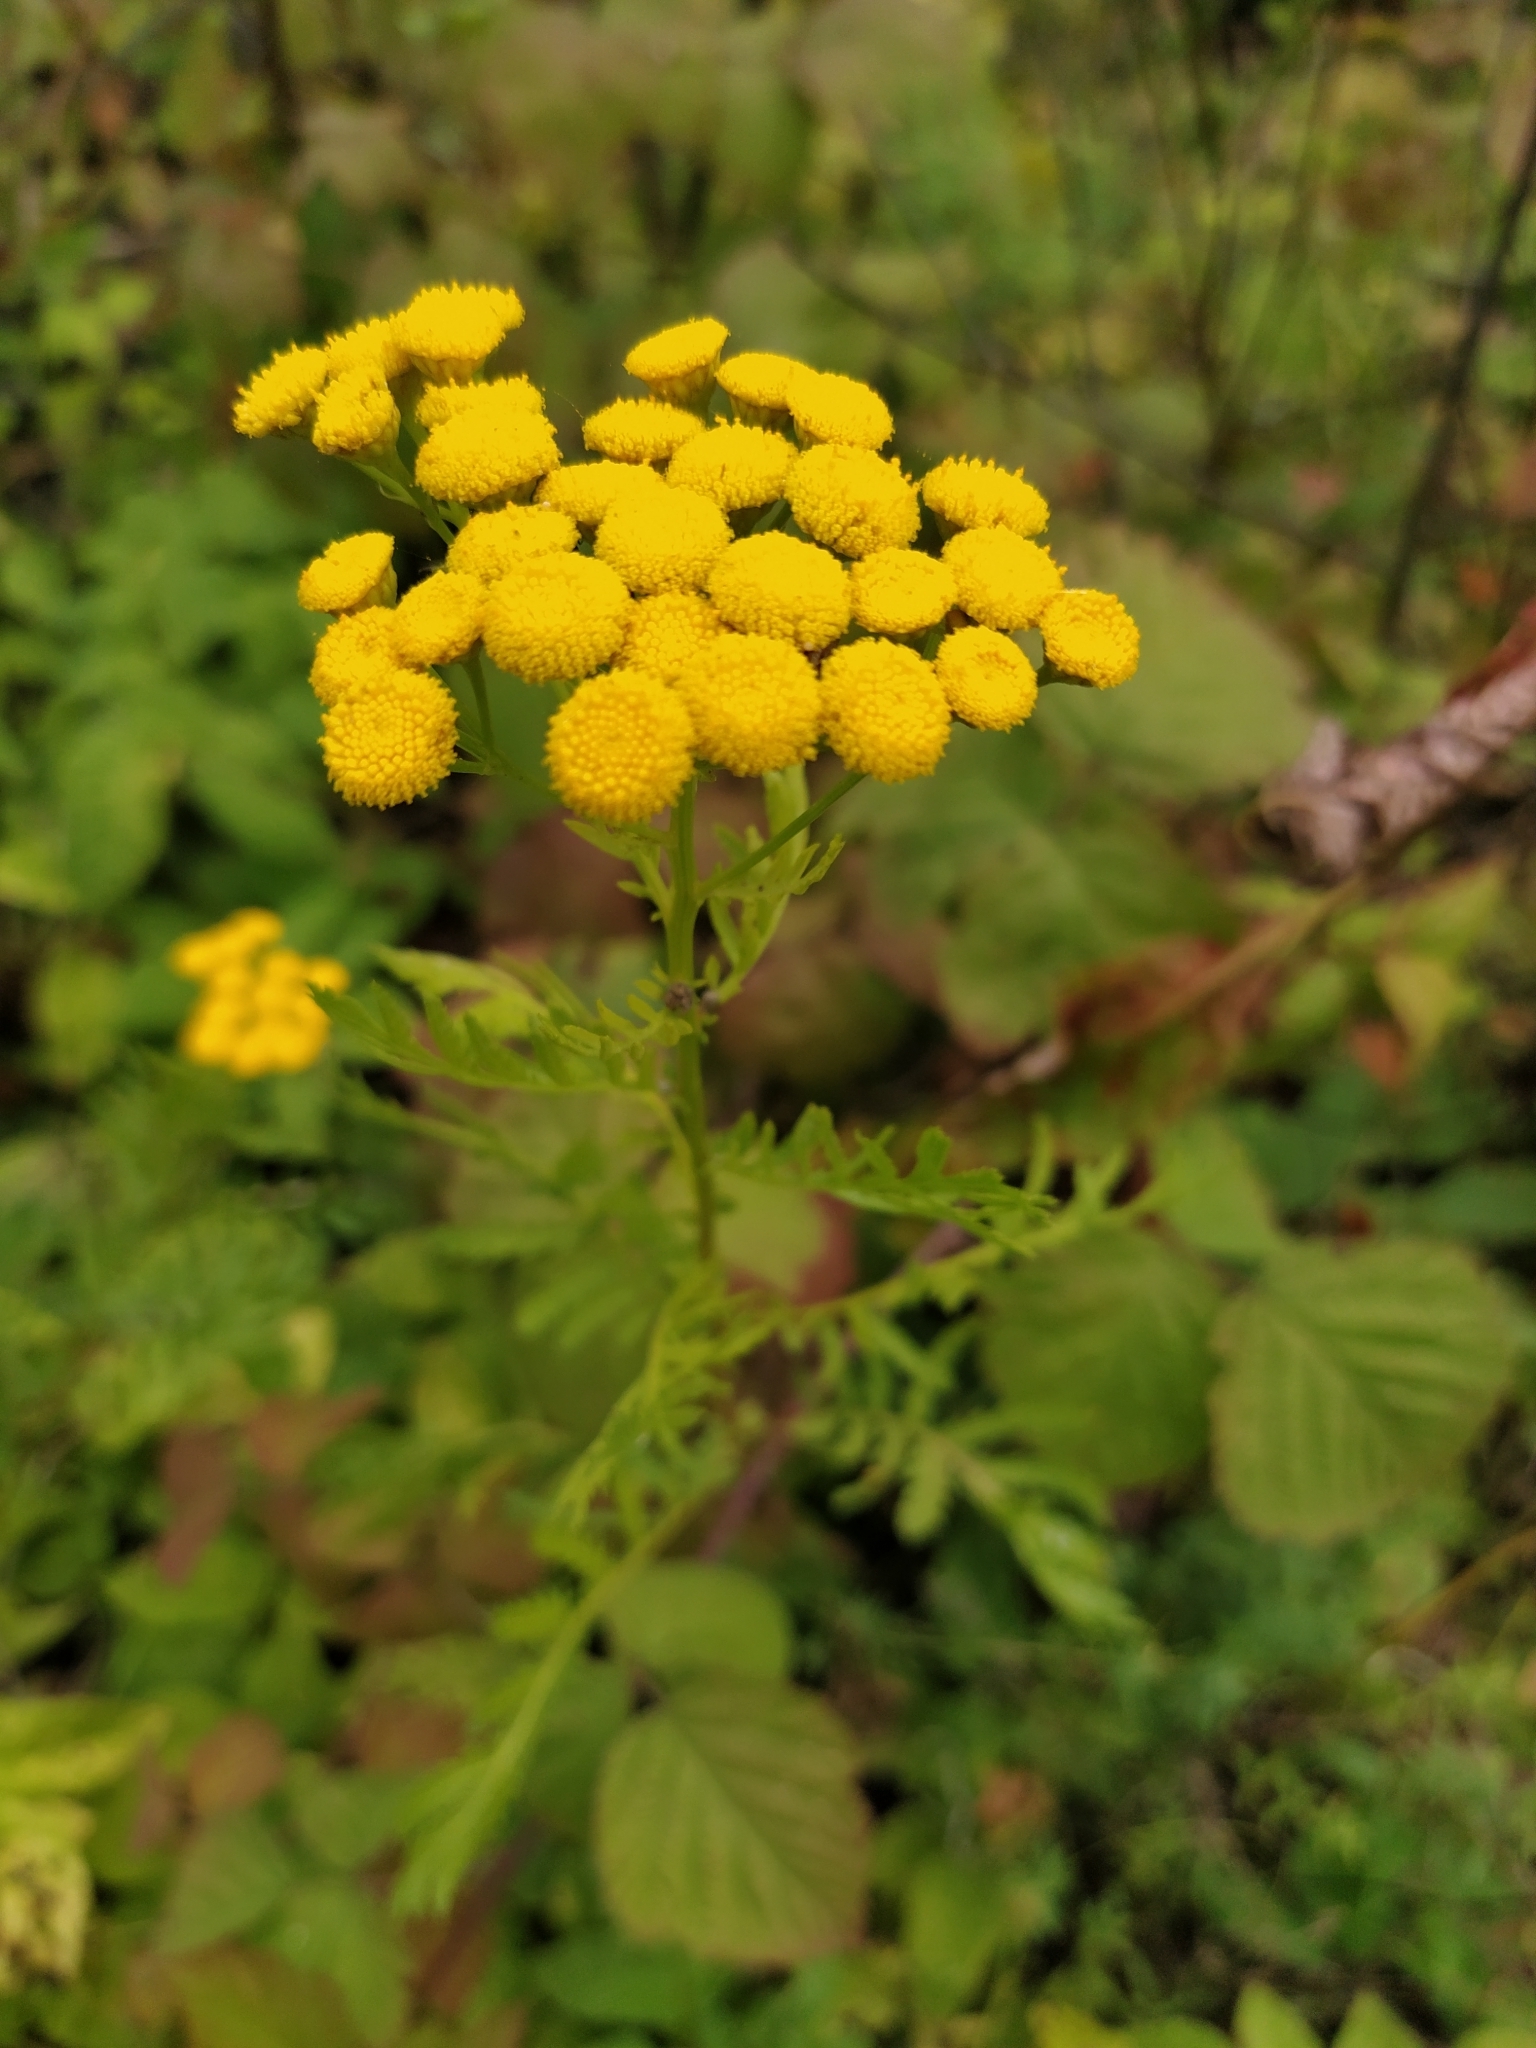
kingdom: Plantae
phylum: Tracheophyta
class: Magnoliopsida
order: Asterales
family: Asteraceae
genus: Tanacetum
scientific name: Tanacetum vulgare
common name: Common tansy
